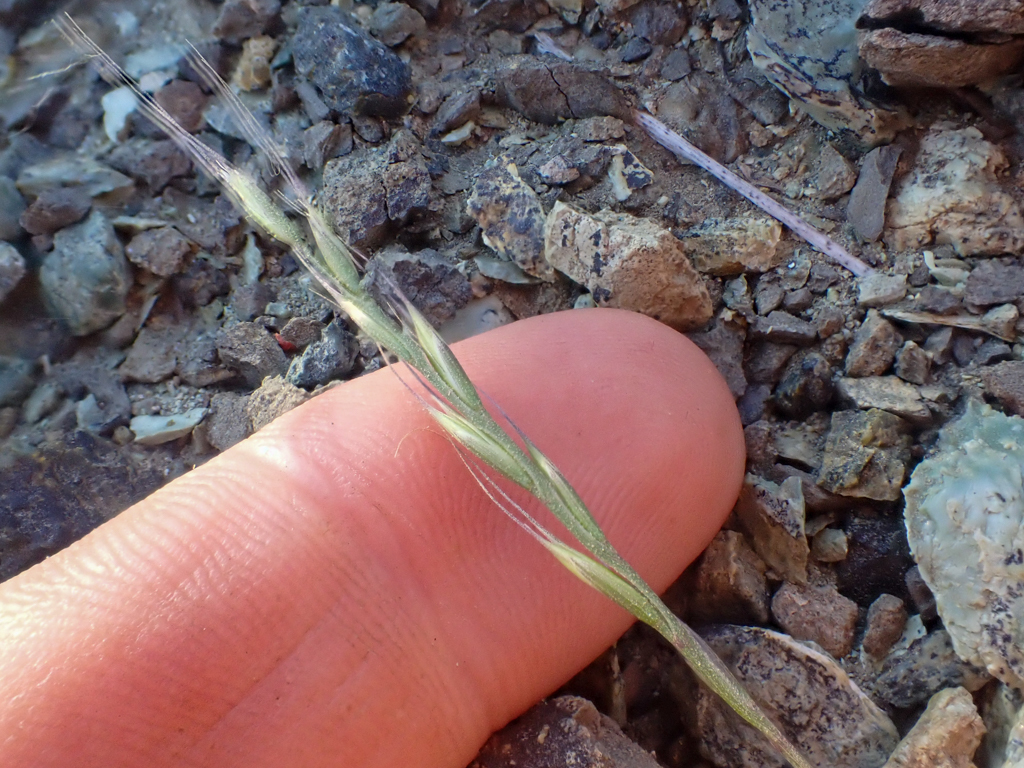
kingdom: Plantae
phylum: Tracheophyta
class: Liliopsida
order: Poales
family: Poaceae
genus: Festuca
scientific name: Festuca microstachys
